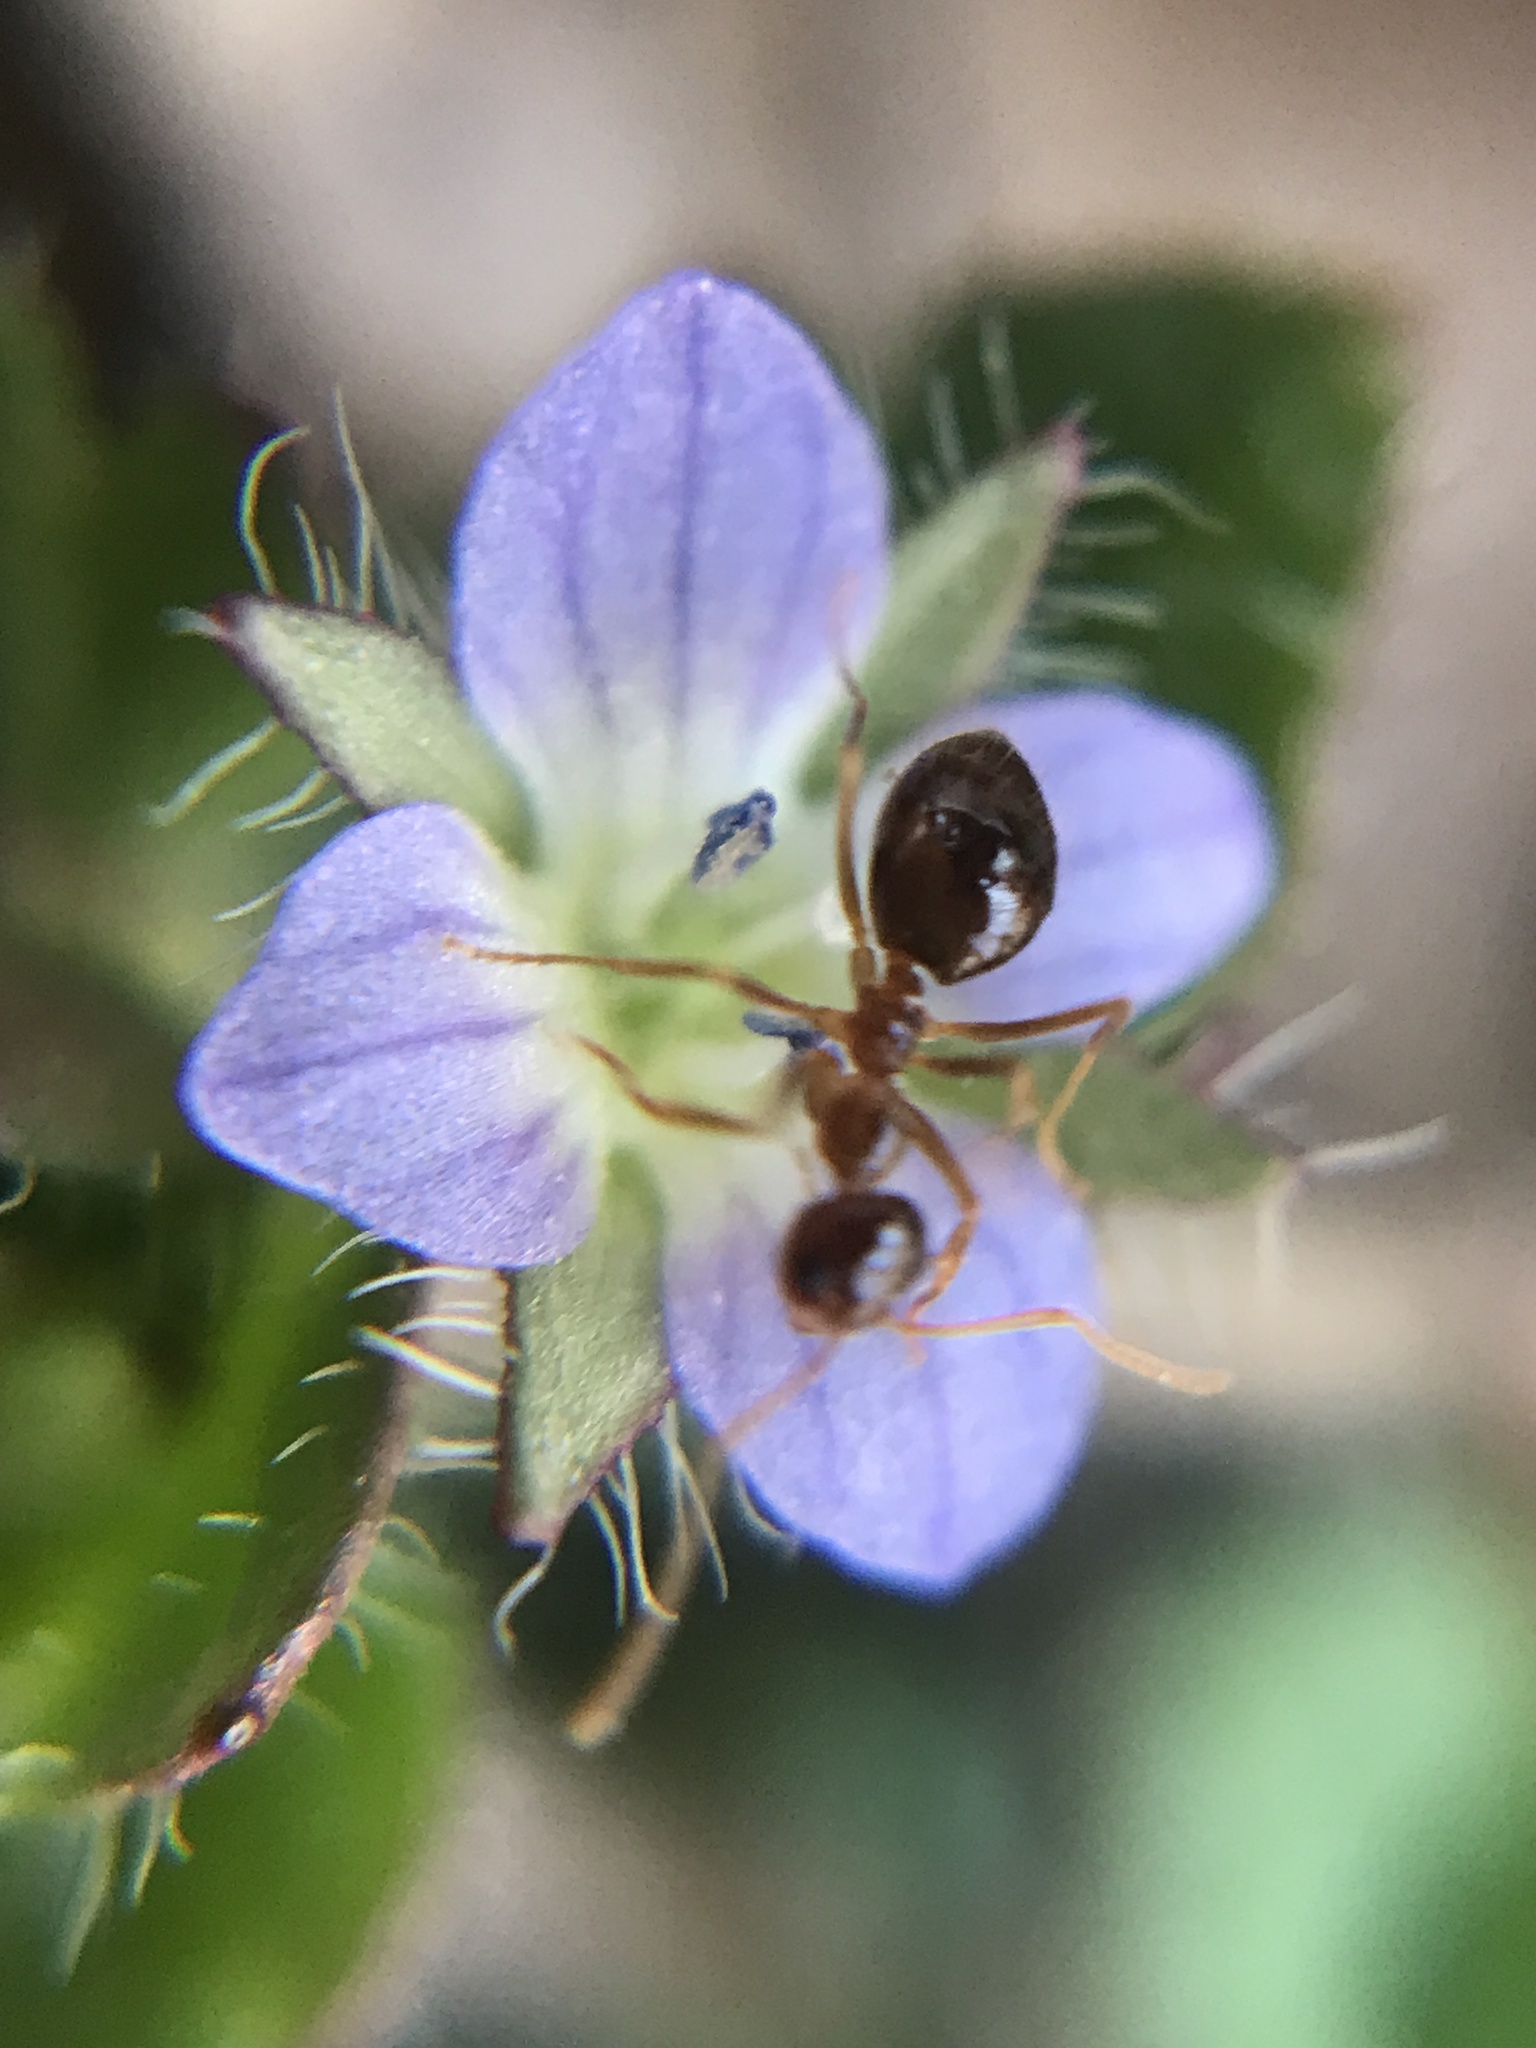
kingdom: Plantae
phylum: Tracheophyta
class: Magnoliopsida
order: Lamiales
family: Plantaginaceae
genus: Veronica
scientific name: Veronica hederifolia
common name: Ivy-leaved speedwell
